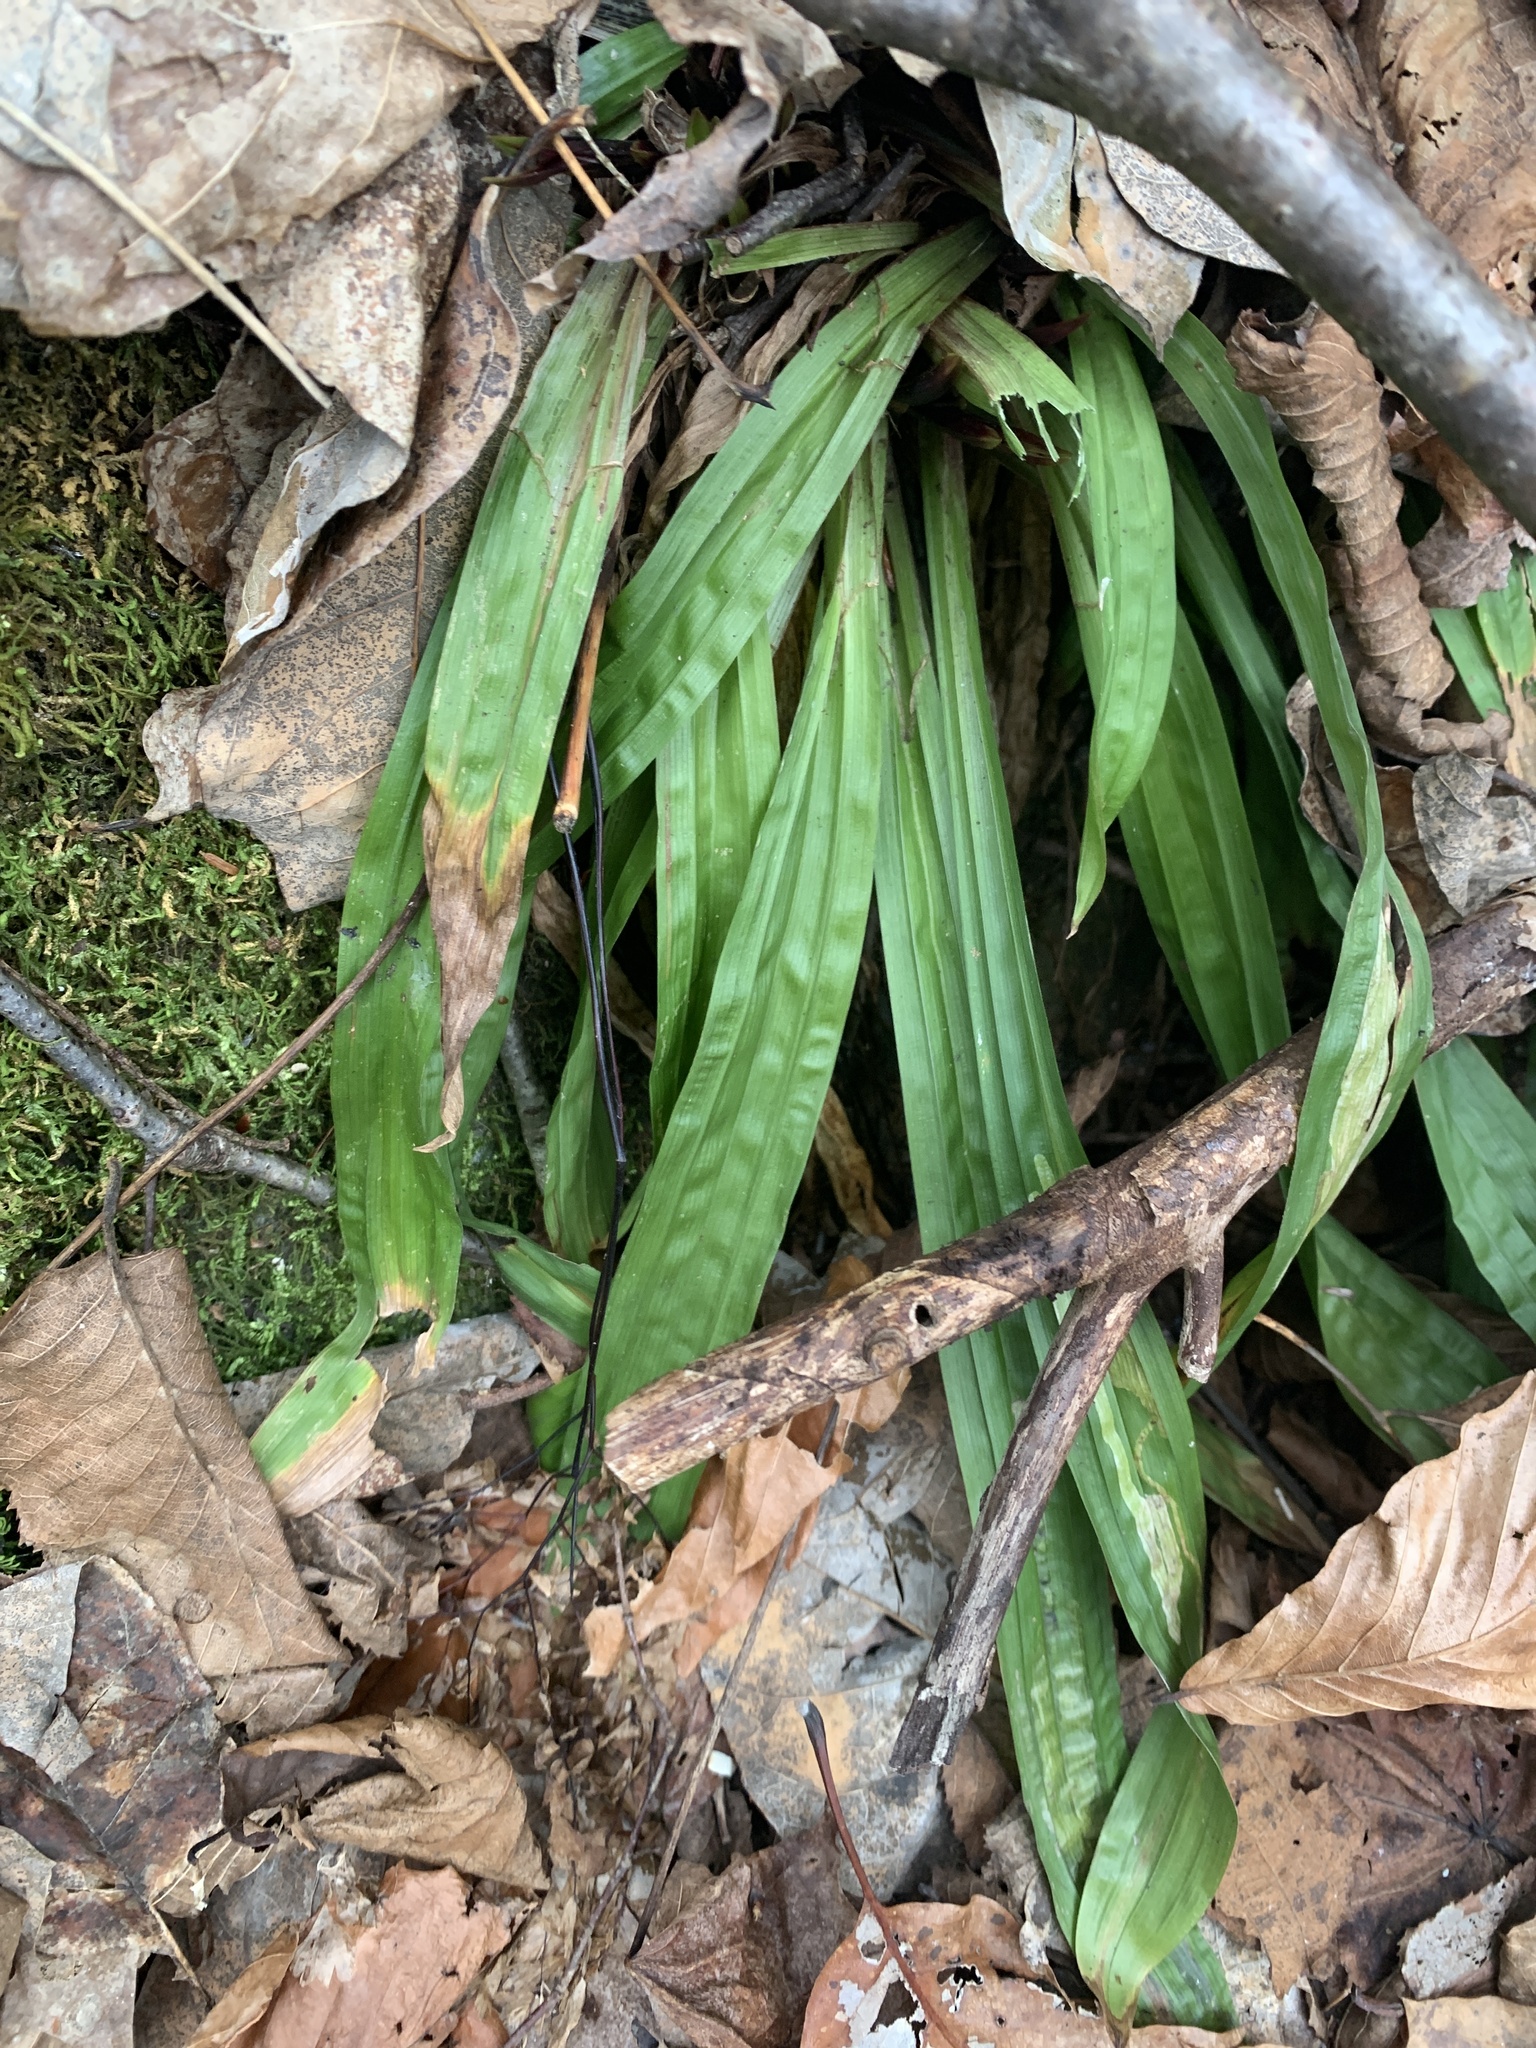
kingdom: Plantae
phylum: Tracheophyta
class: Liliopsida
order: Poales
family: Cyperaceae
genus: Carex
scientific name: Carex plantaginea
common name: Plantain-leaved sedge
